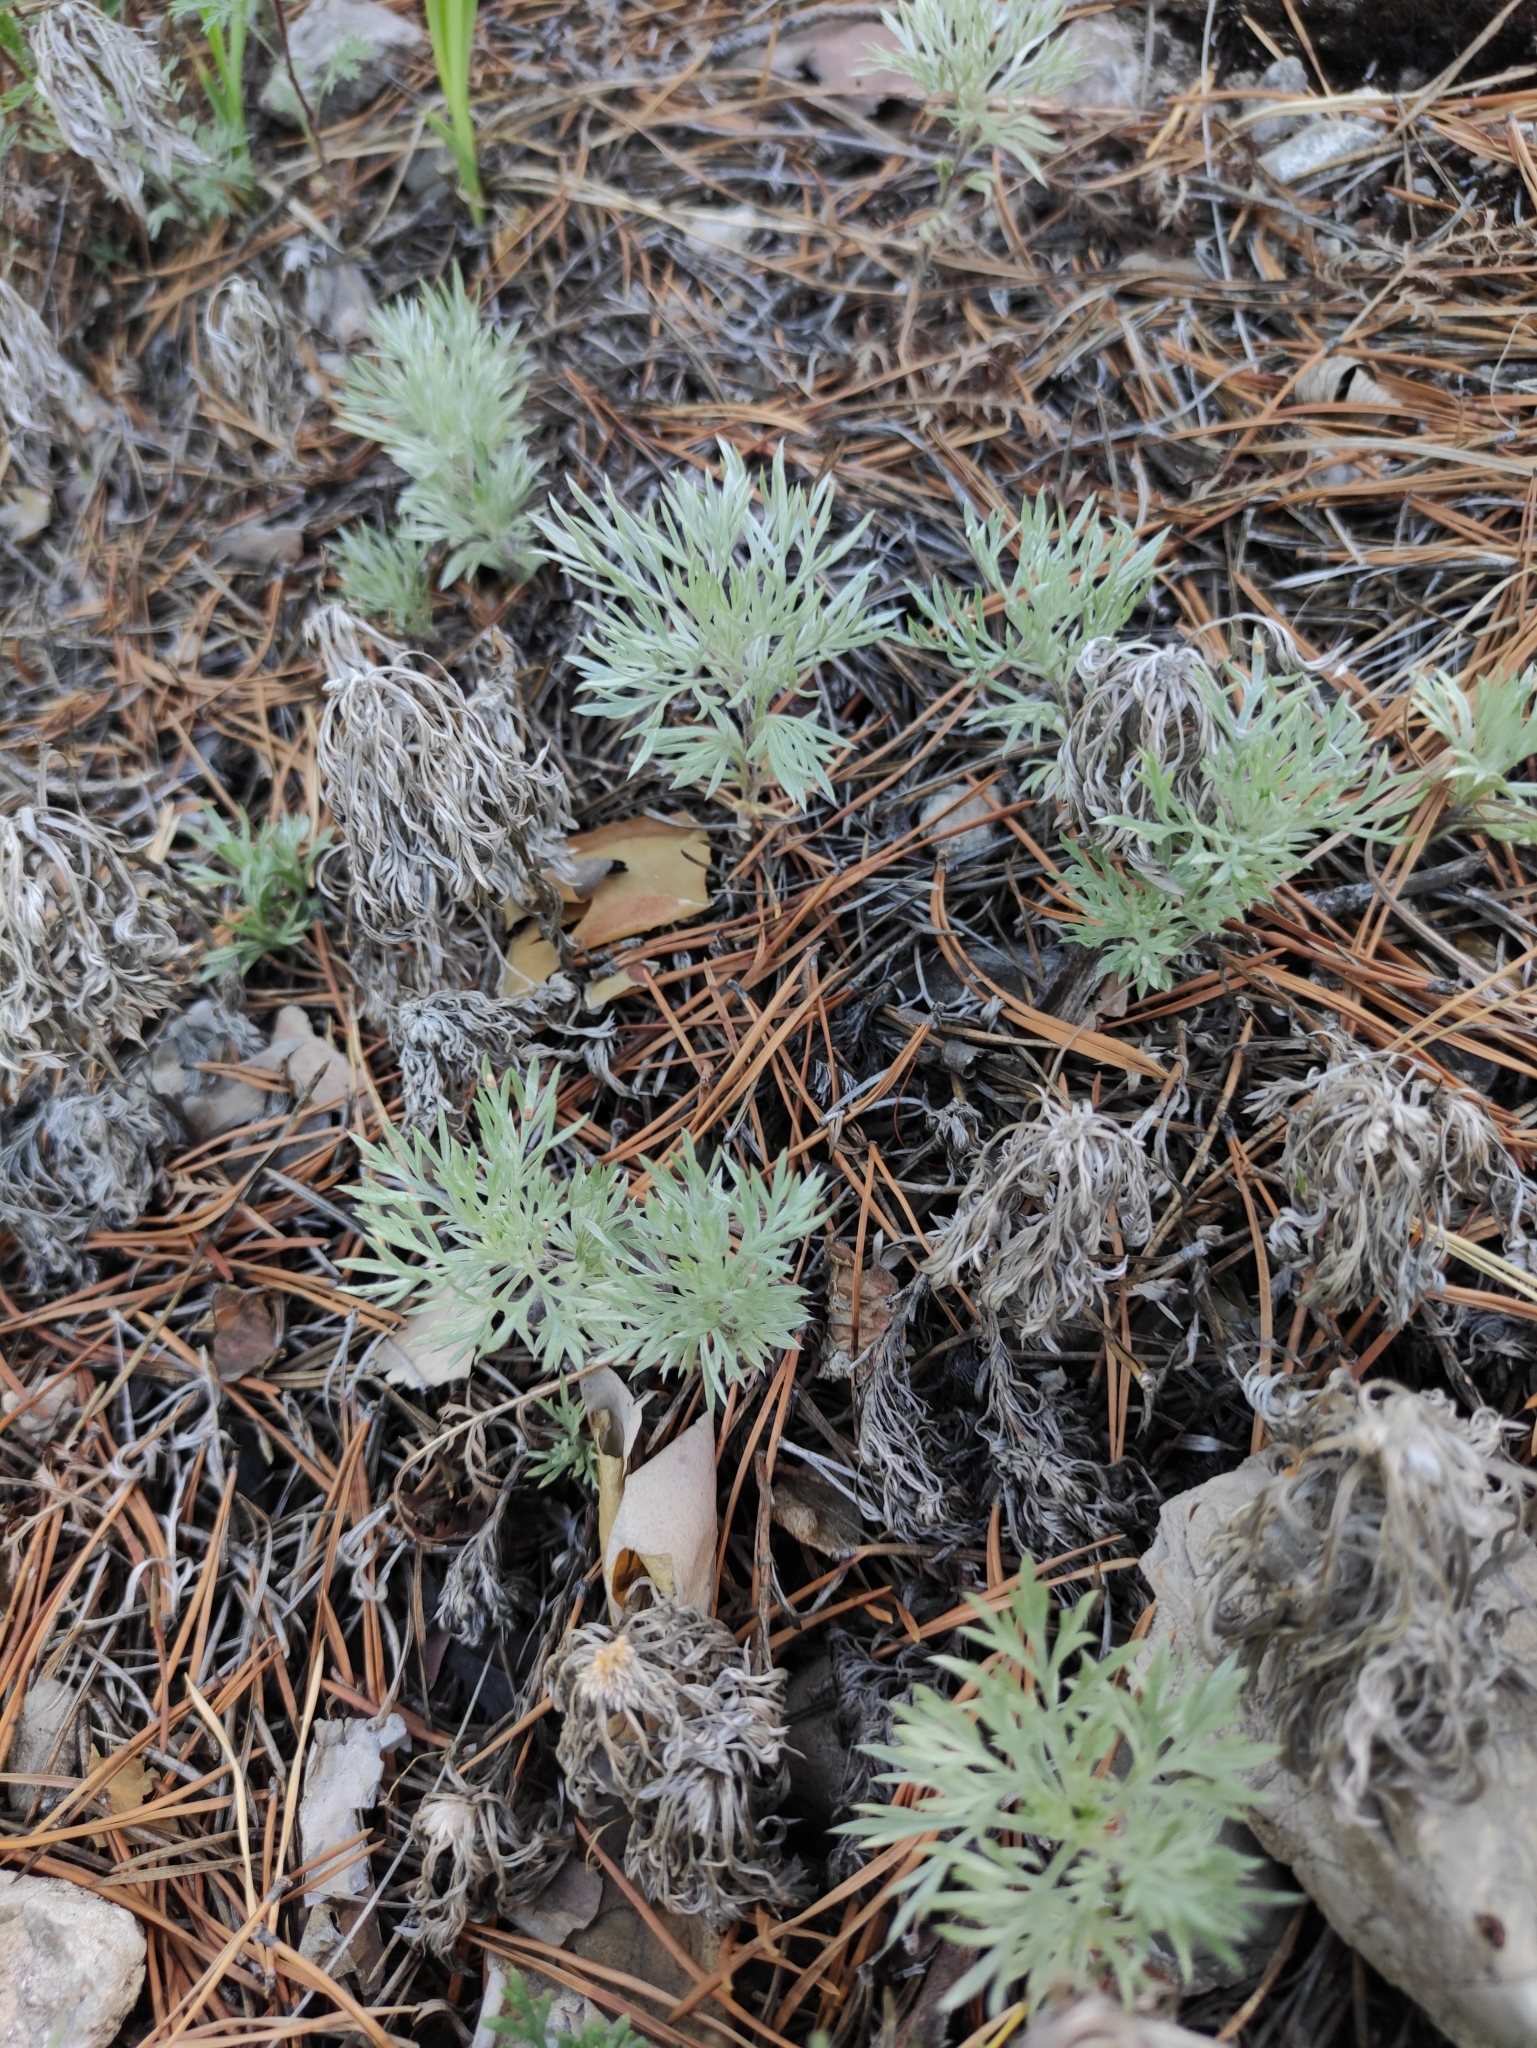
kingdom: Plantae
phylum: Tracheophyta
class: Magnoliopsida
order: Asterales
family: Asteraceae
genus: Artemisia
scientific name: Artemisia sericea
